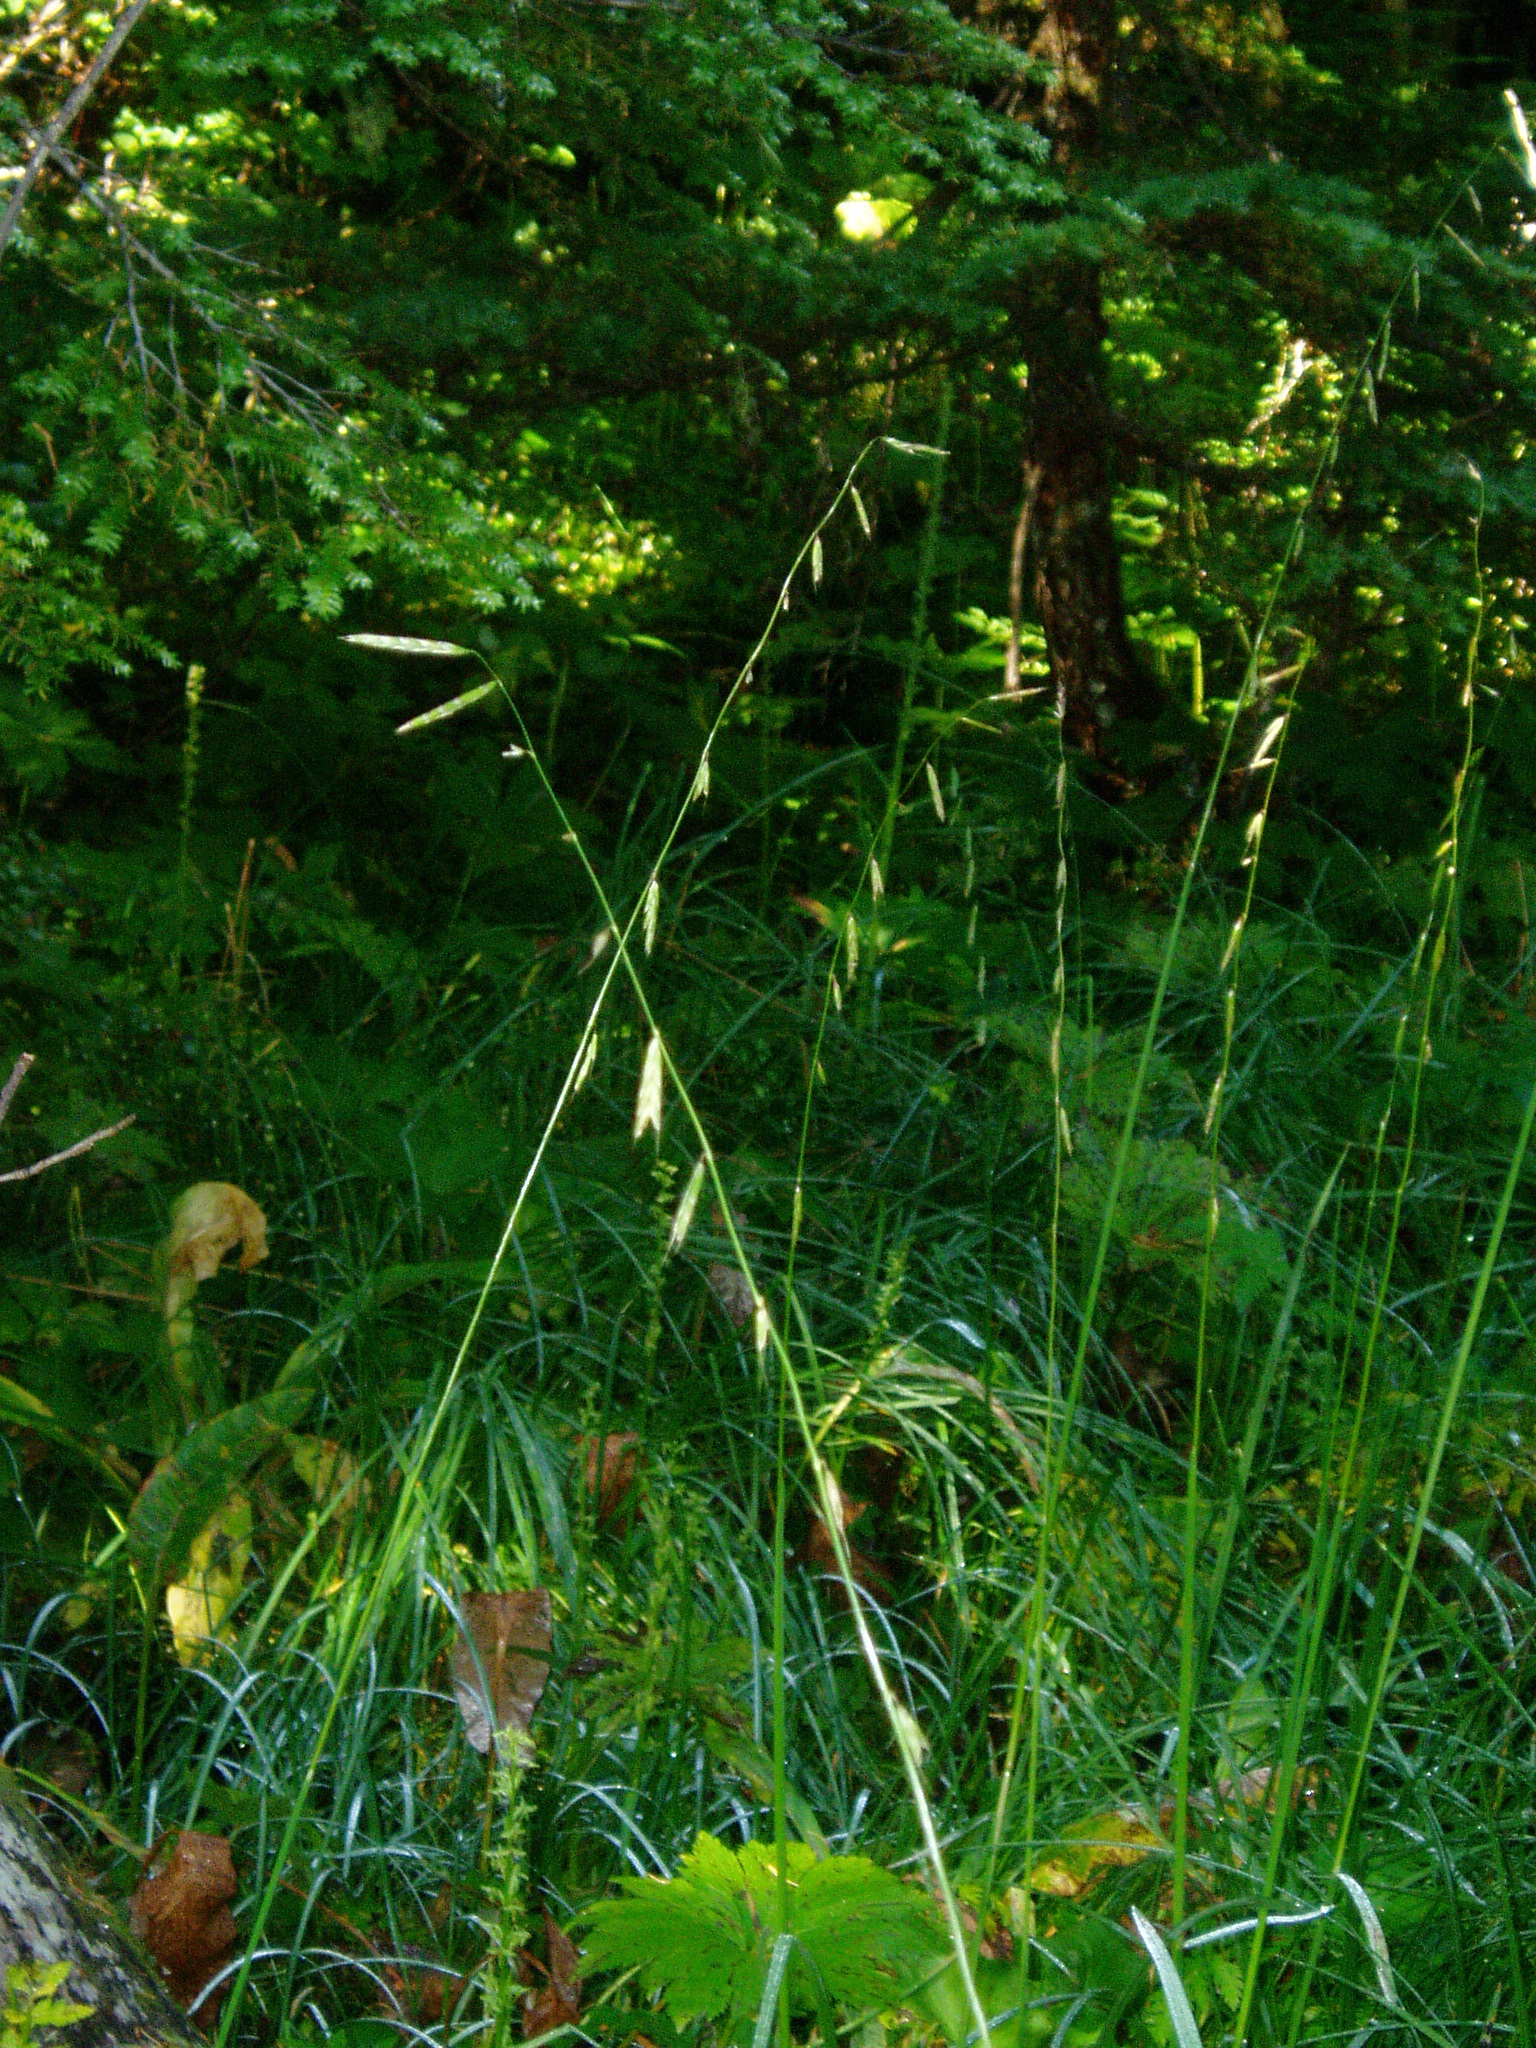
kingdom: Plantae
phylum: Tracheophyta
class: Liliopsida
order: Poales
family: Poaceae
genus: Pleuropogon
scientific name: Pleuropogon refractus
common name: Nodding false semaphoregrass
